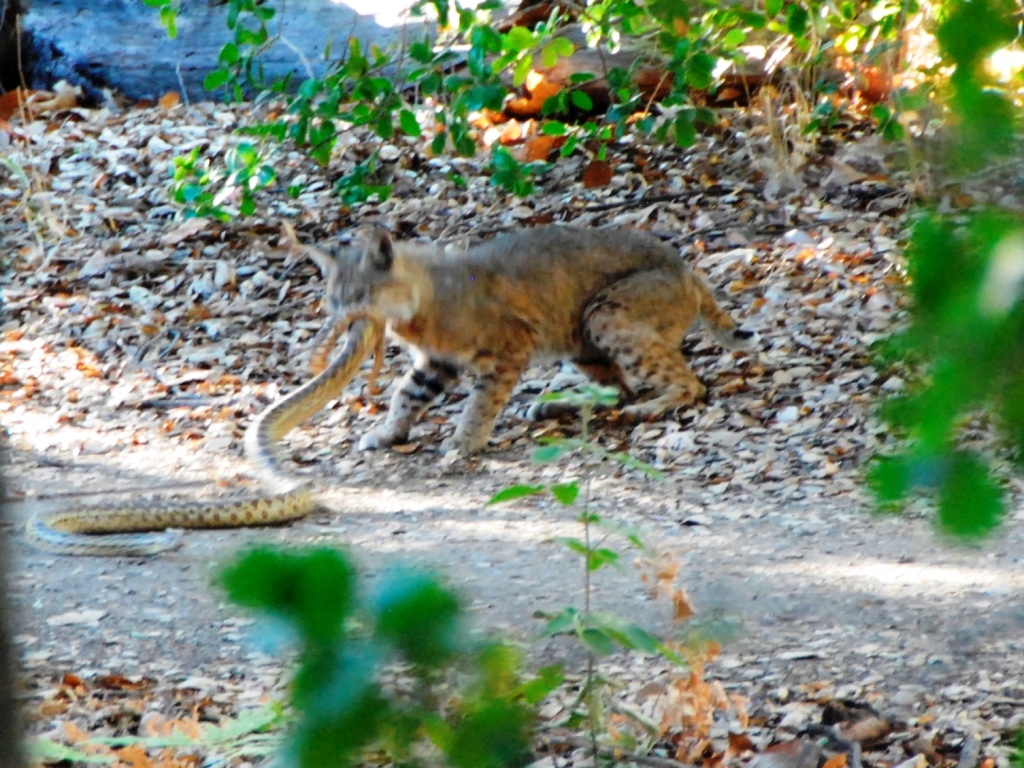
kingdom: Animalia
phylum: Chordata
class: Mammalia
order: Carnivora
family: Felidae
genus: Lynx
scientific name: Lynx rufus
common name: Bobcat
